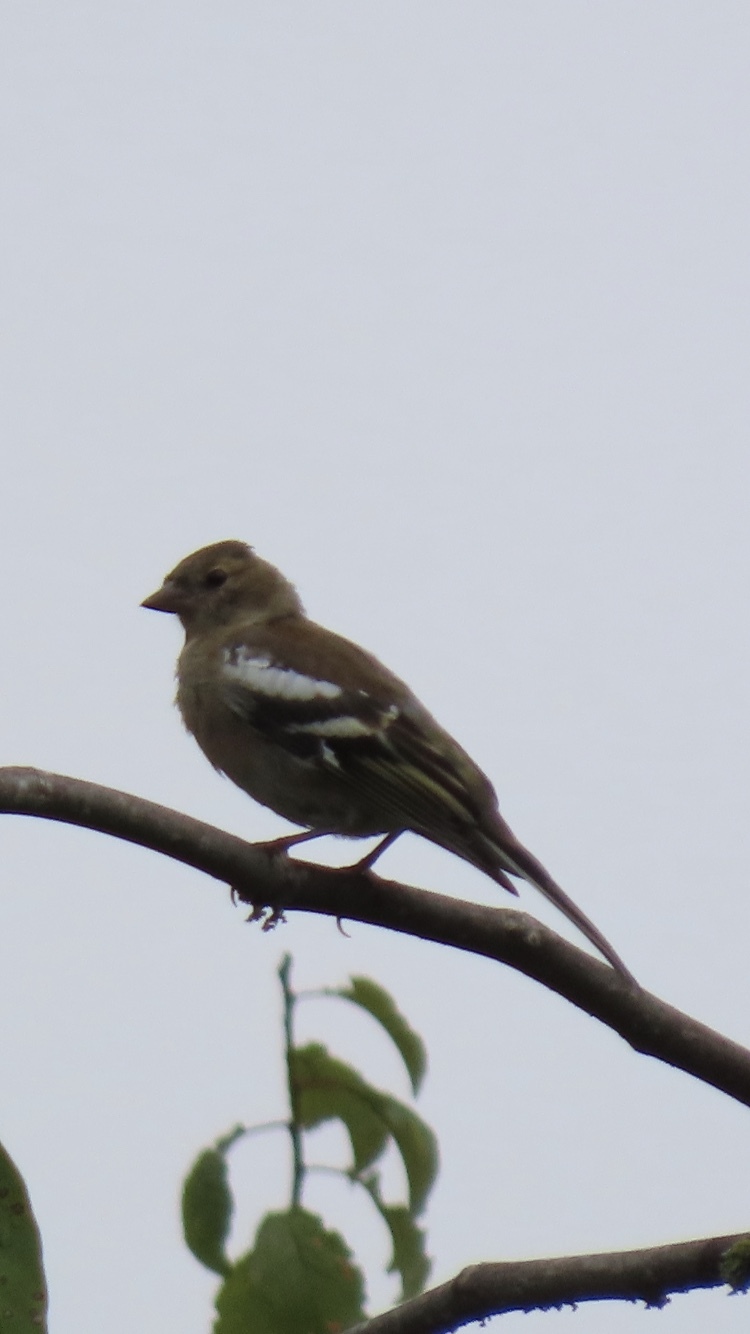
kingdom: Animalia
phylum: Chordata
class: Aves
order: Passeriformes
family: Fringillidae
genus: Fringilla
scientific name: Fringilla coelebs
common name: Common chaffinch
